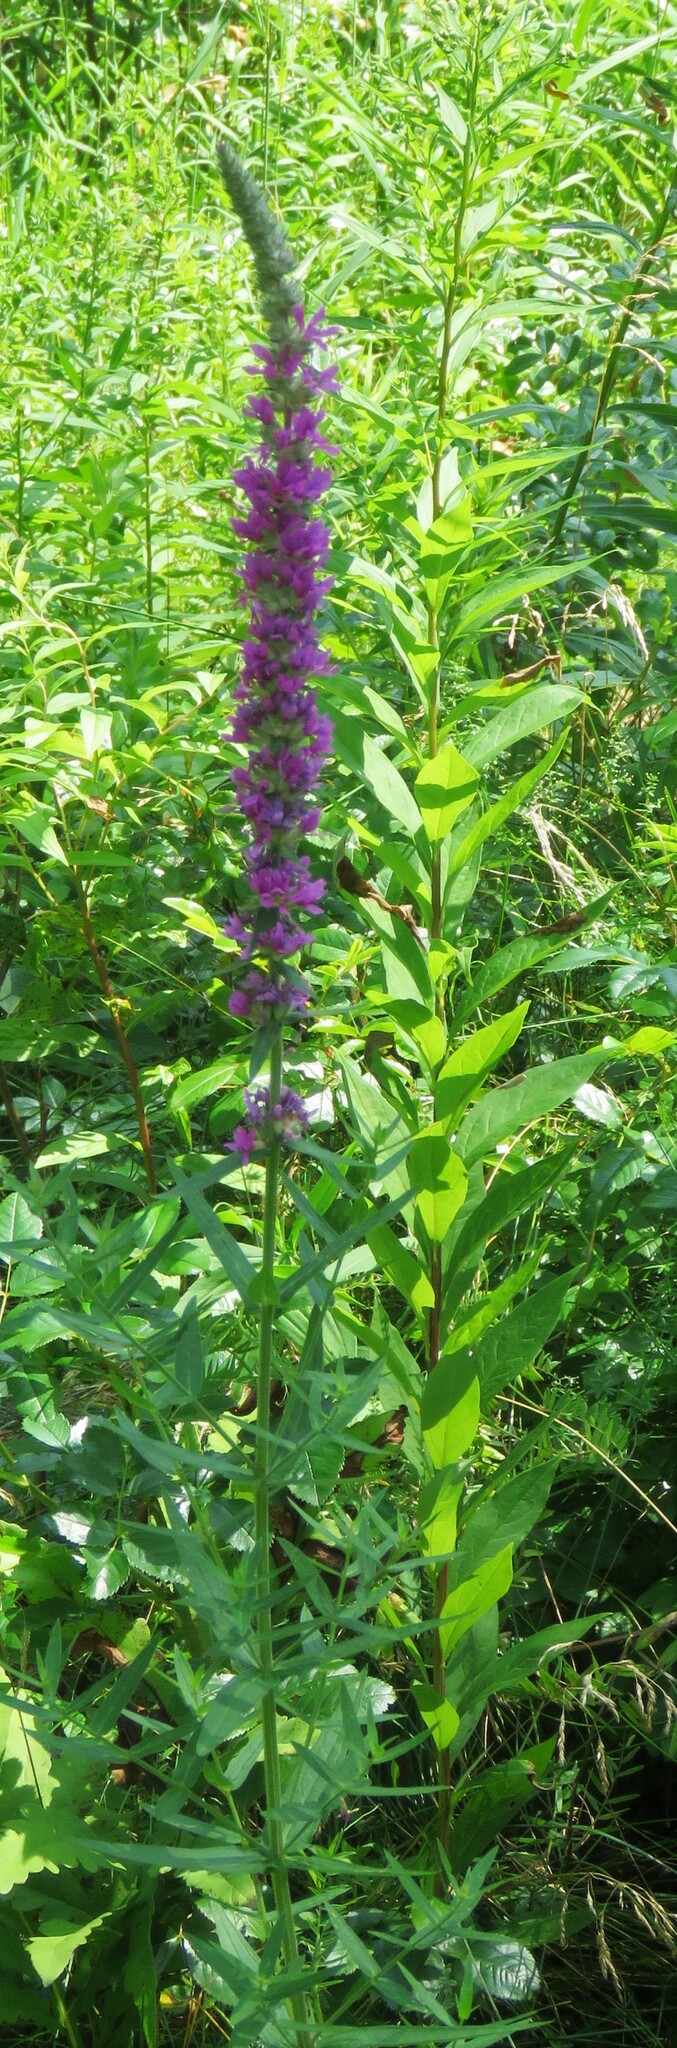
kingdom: Plantae
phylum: Tracheophyta
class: Magnoliopsida
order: Myrtales
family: Lythraceae
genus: Lythrum
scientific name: Lythrum salicaria
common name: Purple loosestrife
